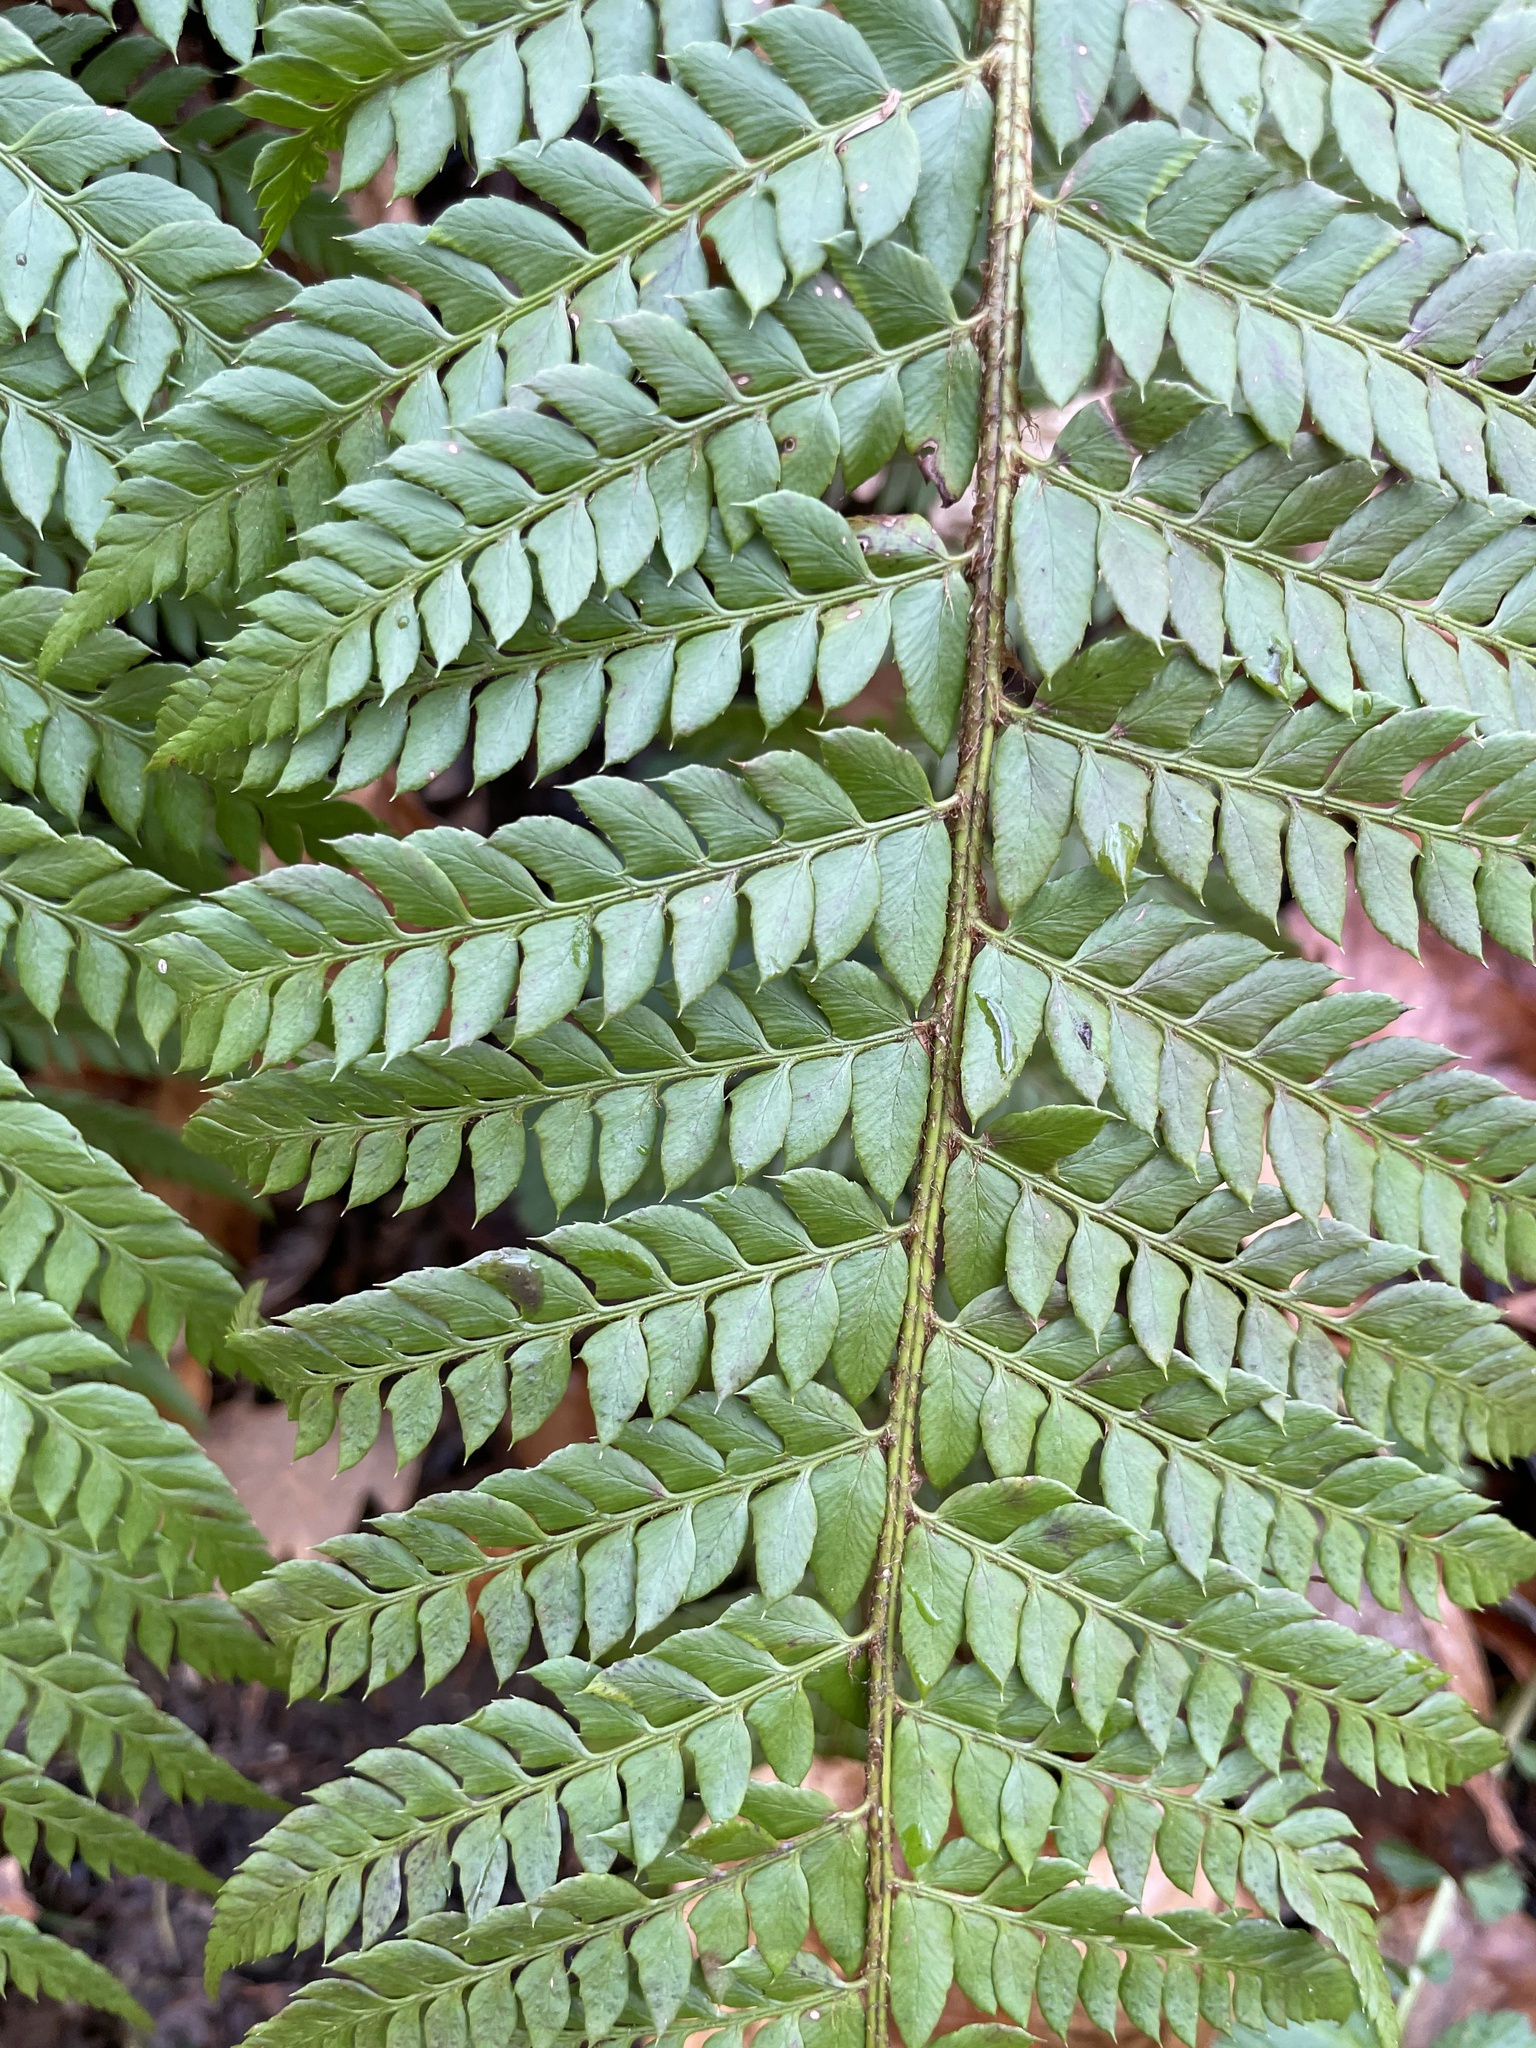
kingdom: Plantae
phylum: Tracheophyta
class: Polypodiopsida
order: Polypodiales
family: Dryopteridaceae
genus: Polystichum
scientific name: Polystichum aculeatum
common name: Hard shield-fern
